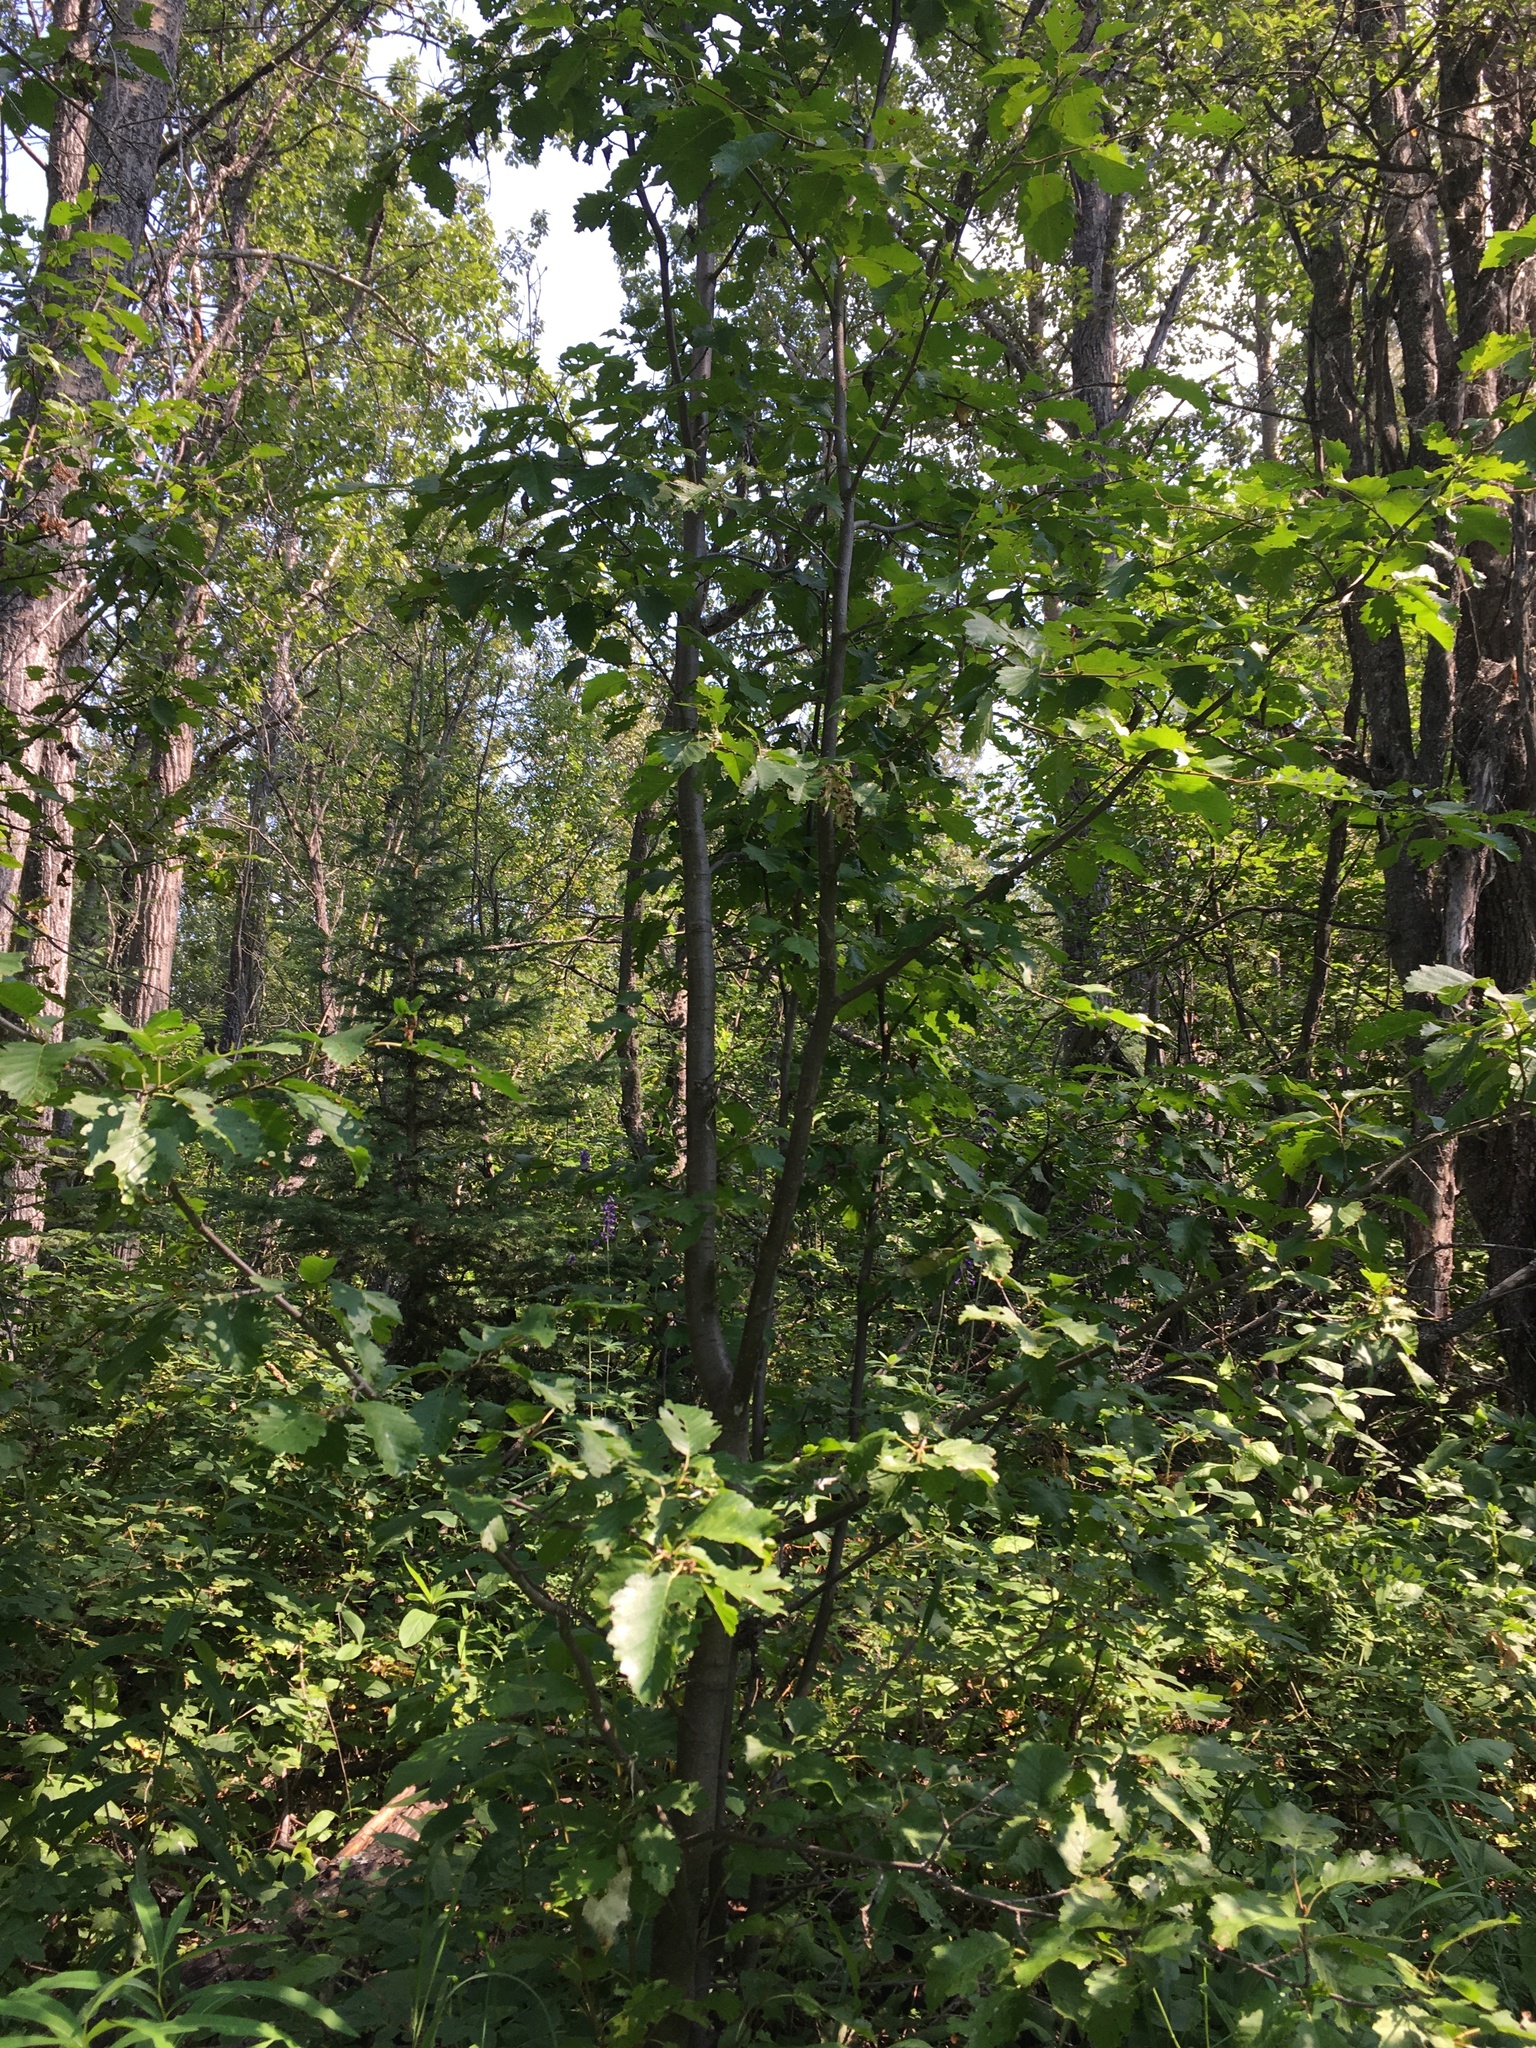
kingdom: Plantae
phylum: Tracheophyta
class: Magnoliopsida
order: Fagales
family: Betulaceae
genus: Alnus
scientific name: Alnus incana
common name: Grey alder
